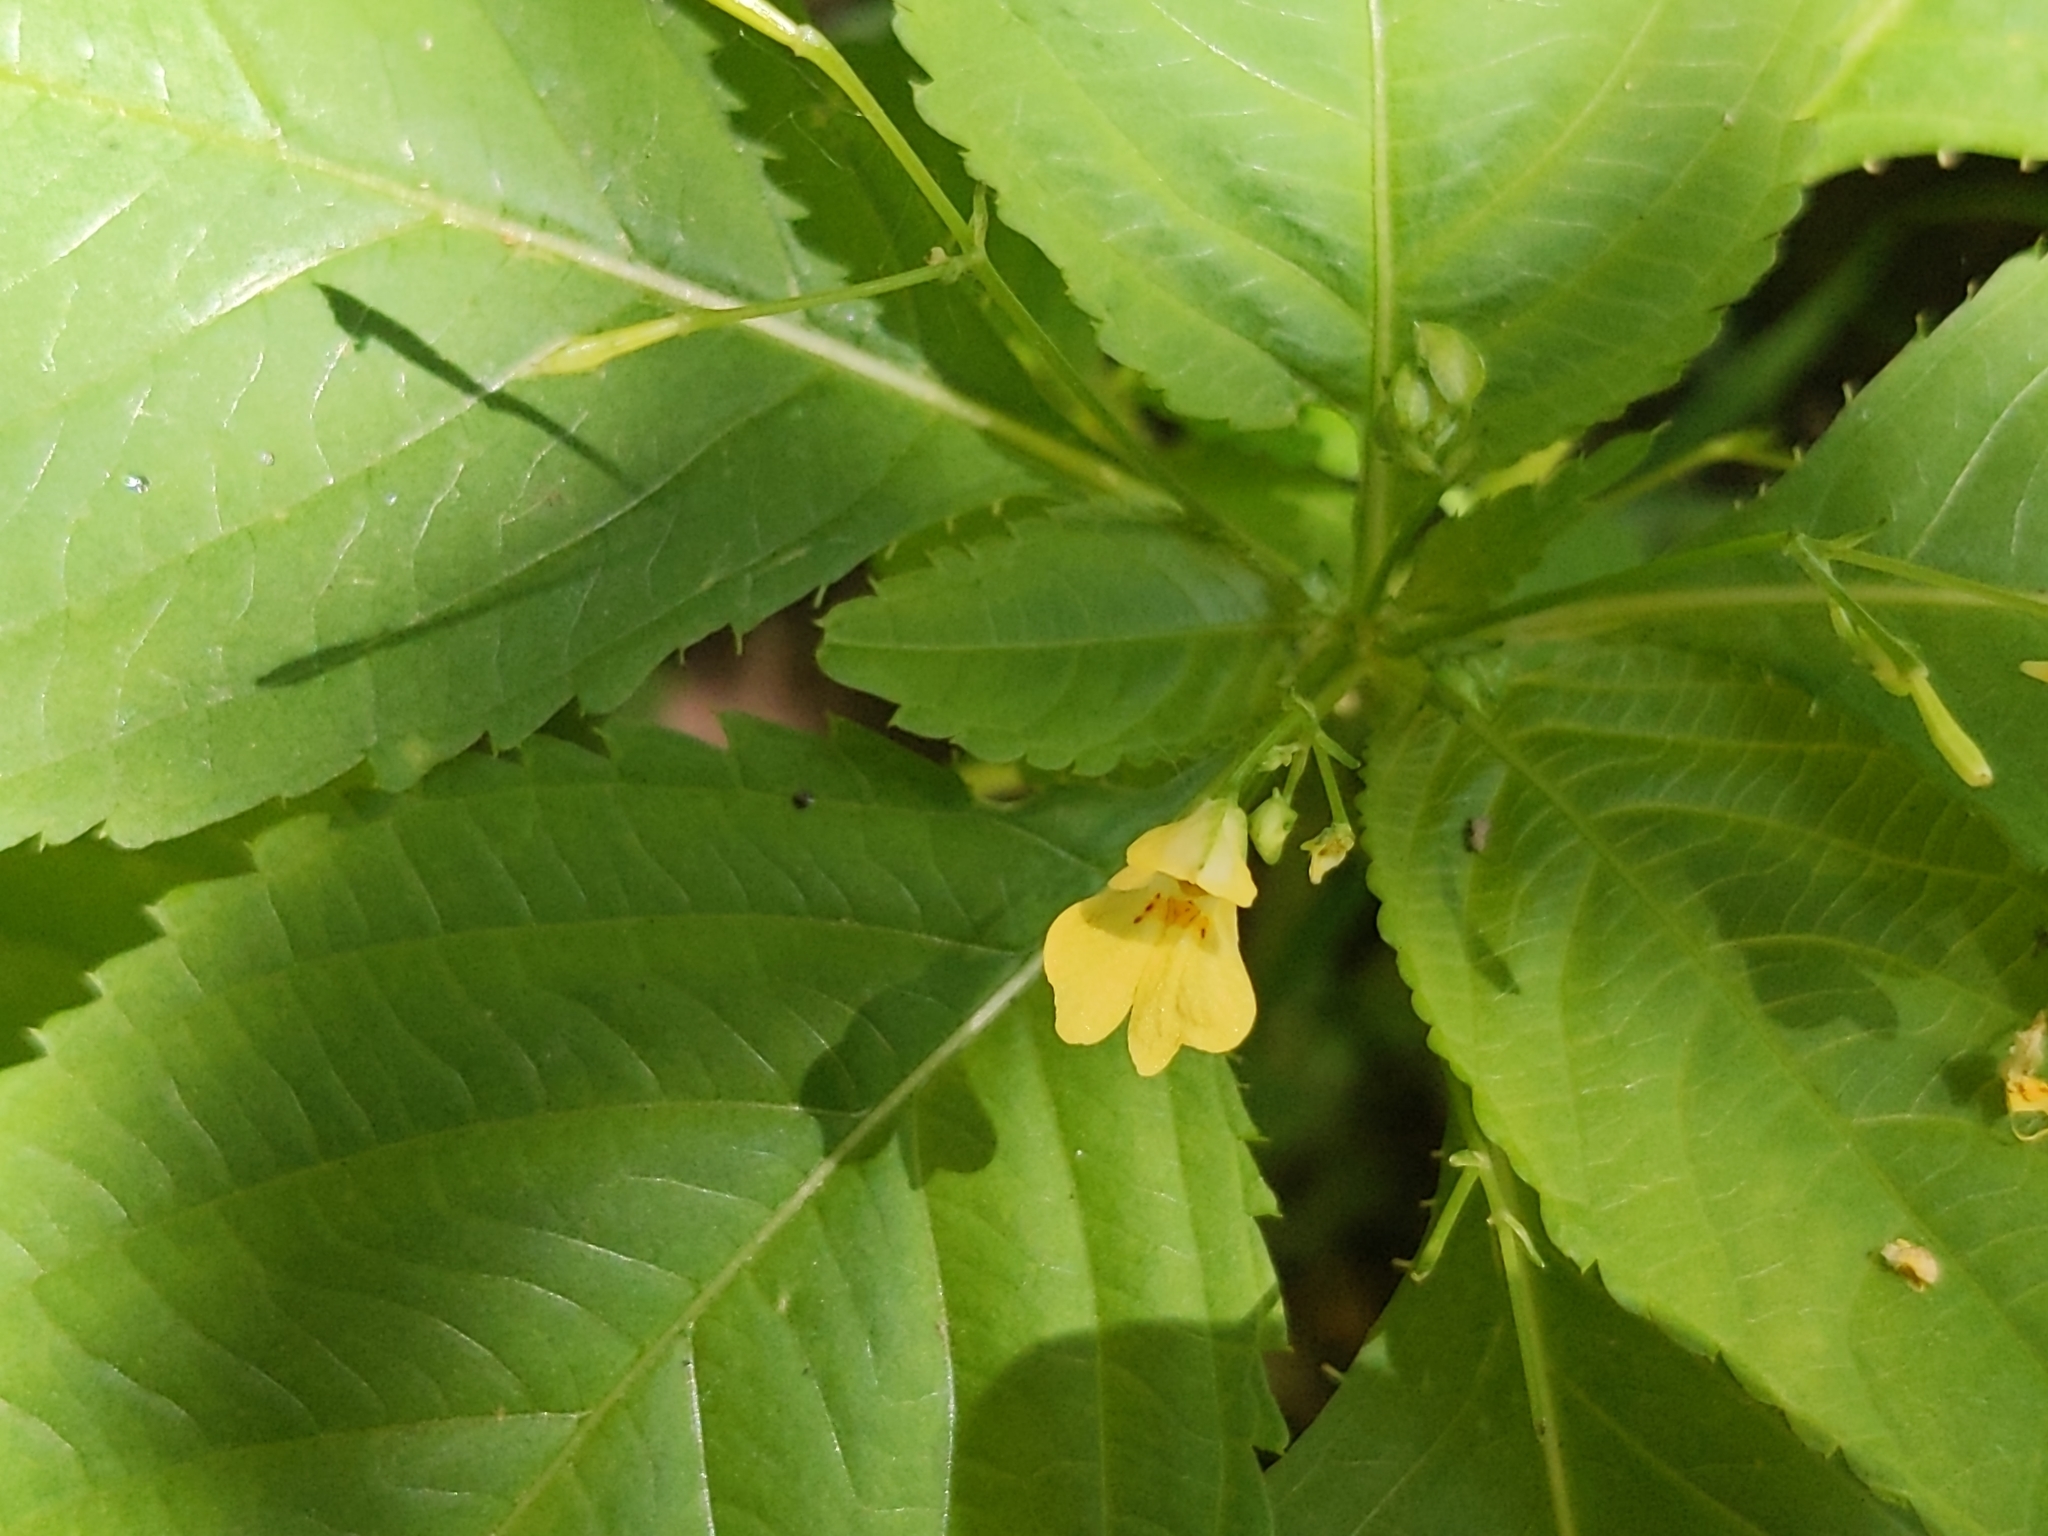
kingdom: Plantae
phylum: Tracheophyta
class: Magnoliopsida
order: Ericales
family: Balsaminaceae
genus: Impatiens
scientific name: Impatiens parviflora
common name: Small balsam
